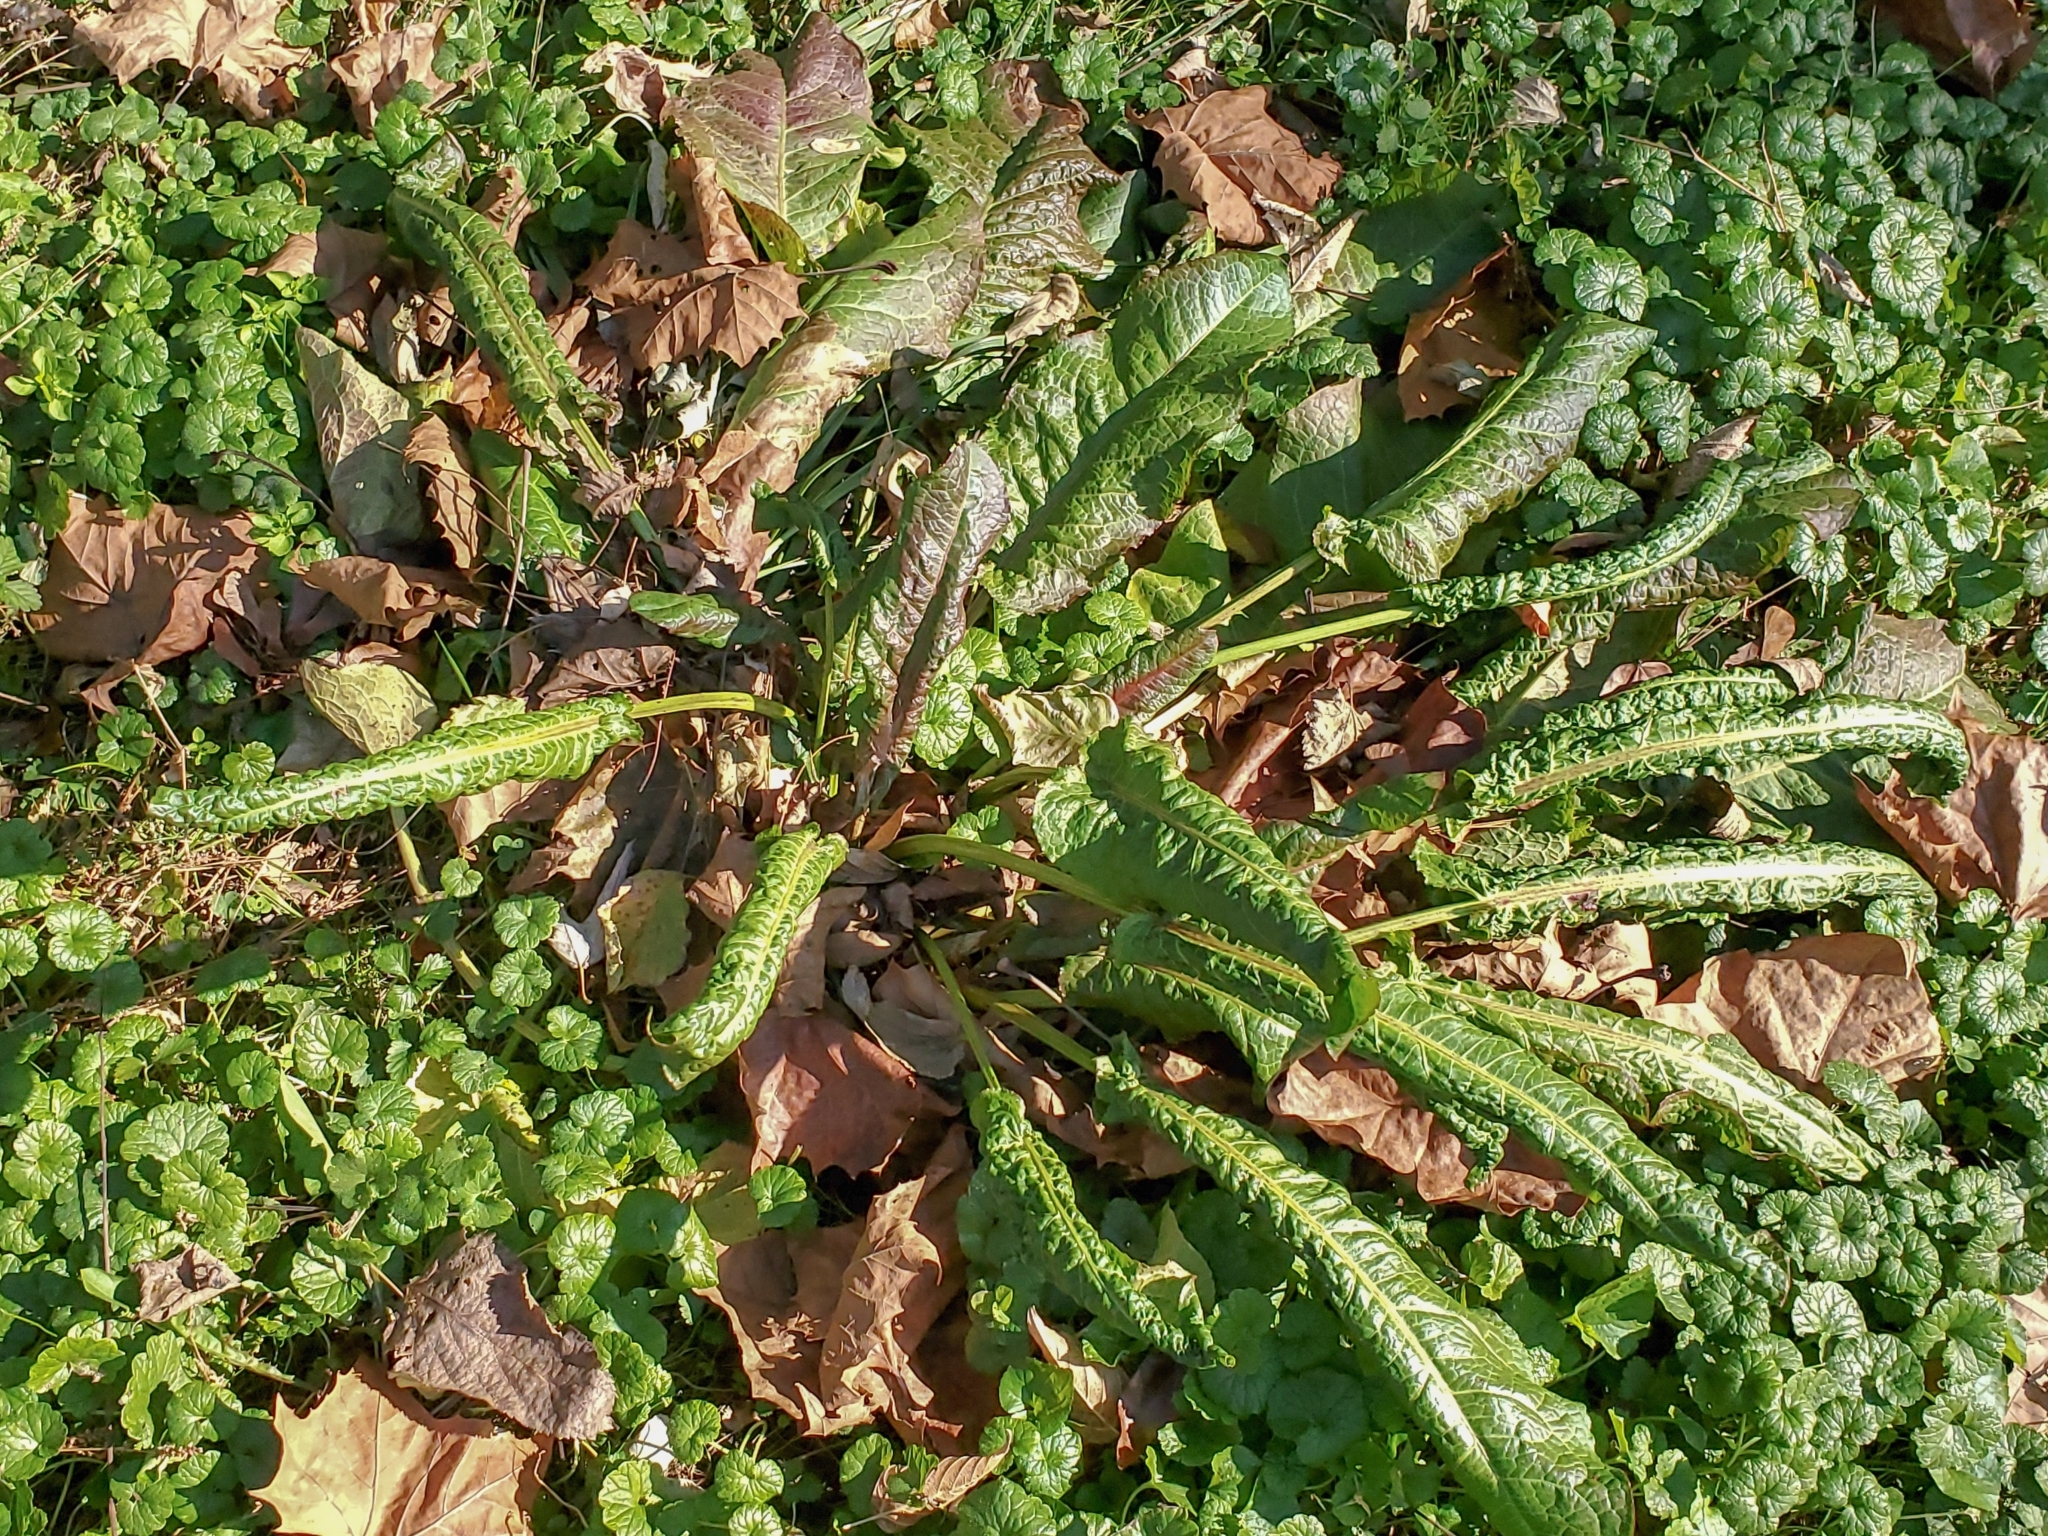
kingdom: Plantae
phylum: Tracheophyta
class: Magnoliopsida
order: Caryophyllales
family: Polygonaceae
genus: Rumex
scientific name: Rumex crispus
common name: Curled dock
